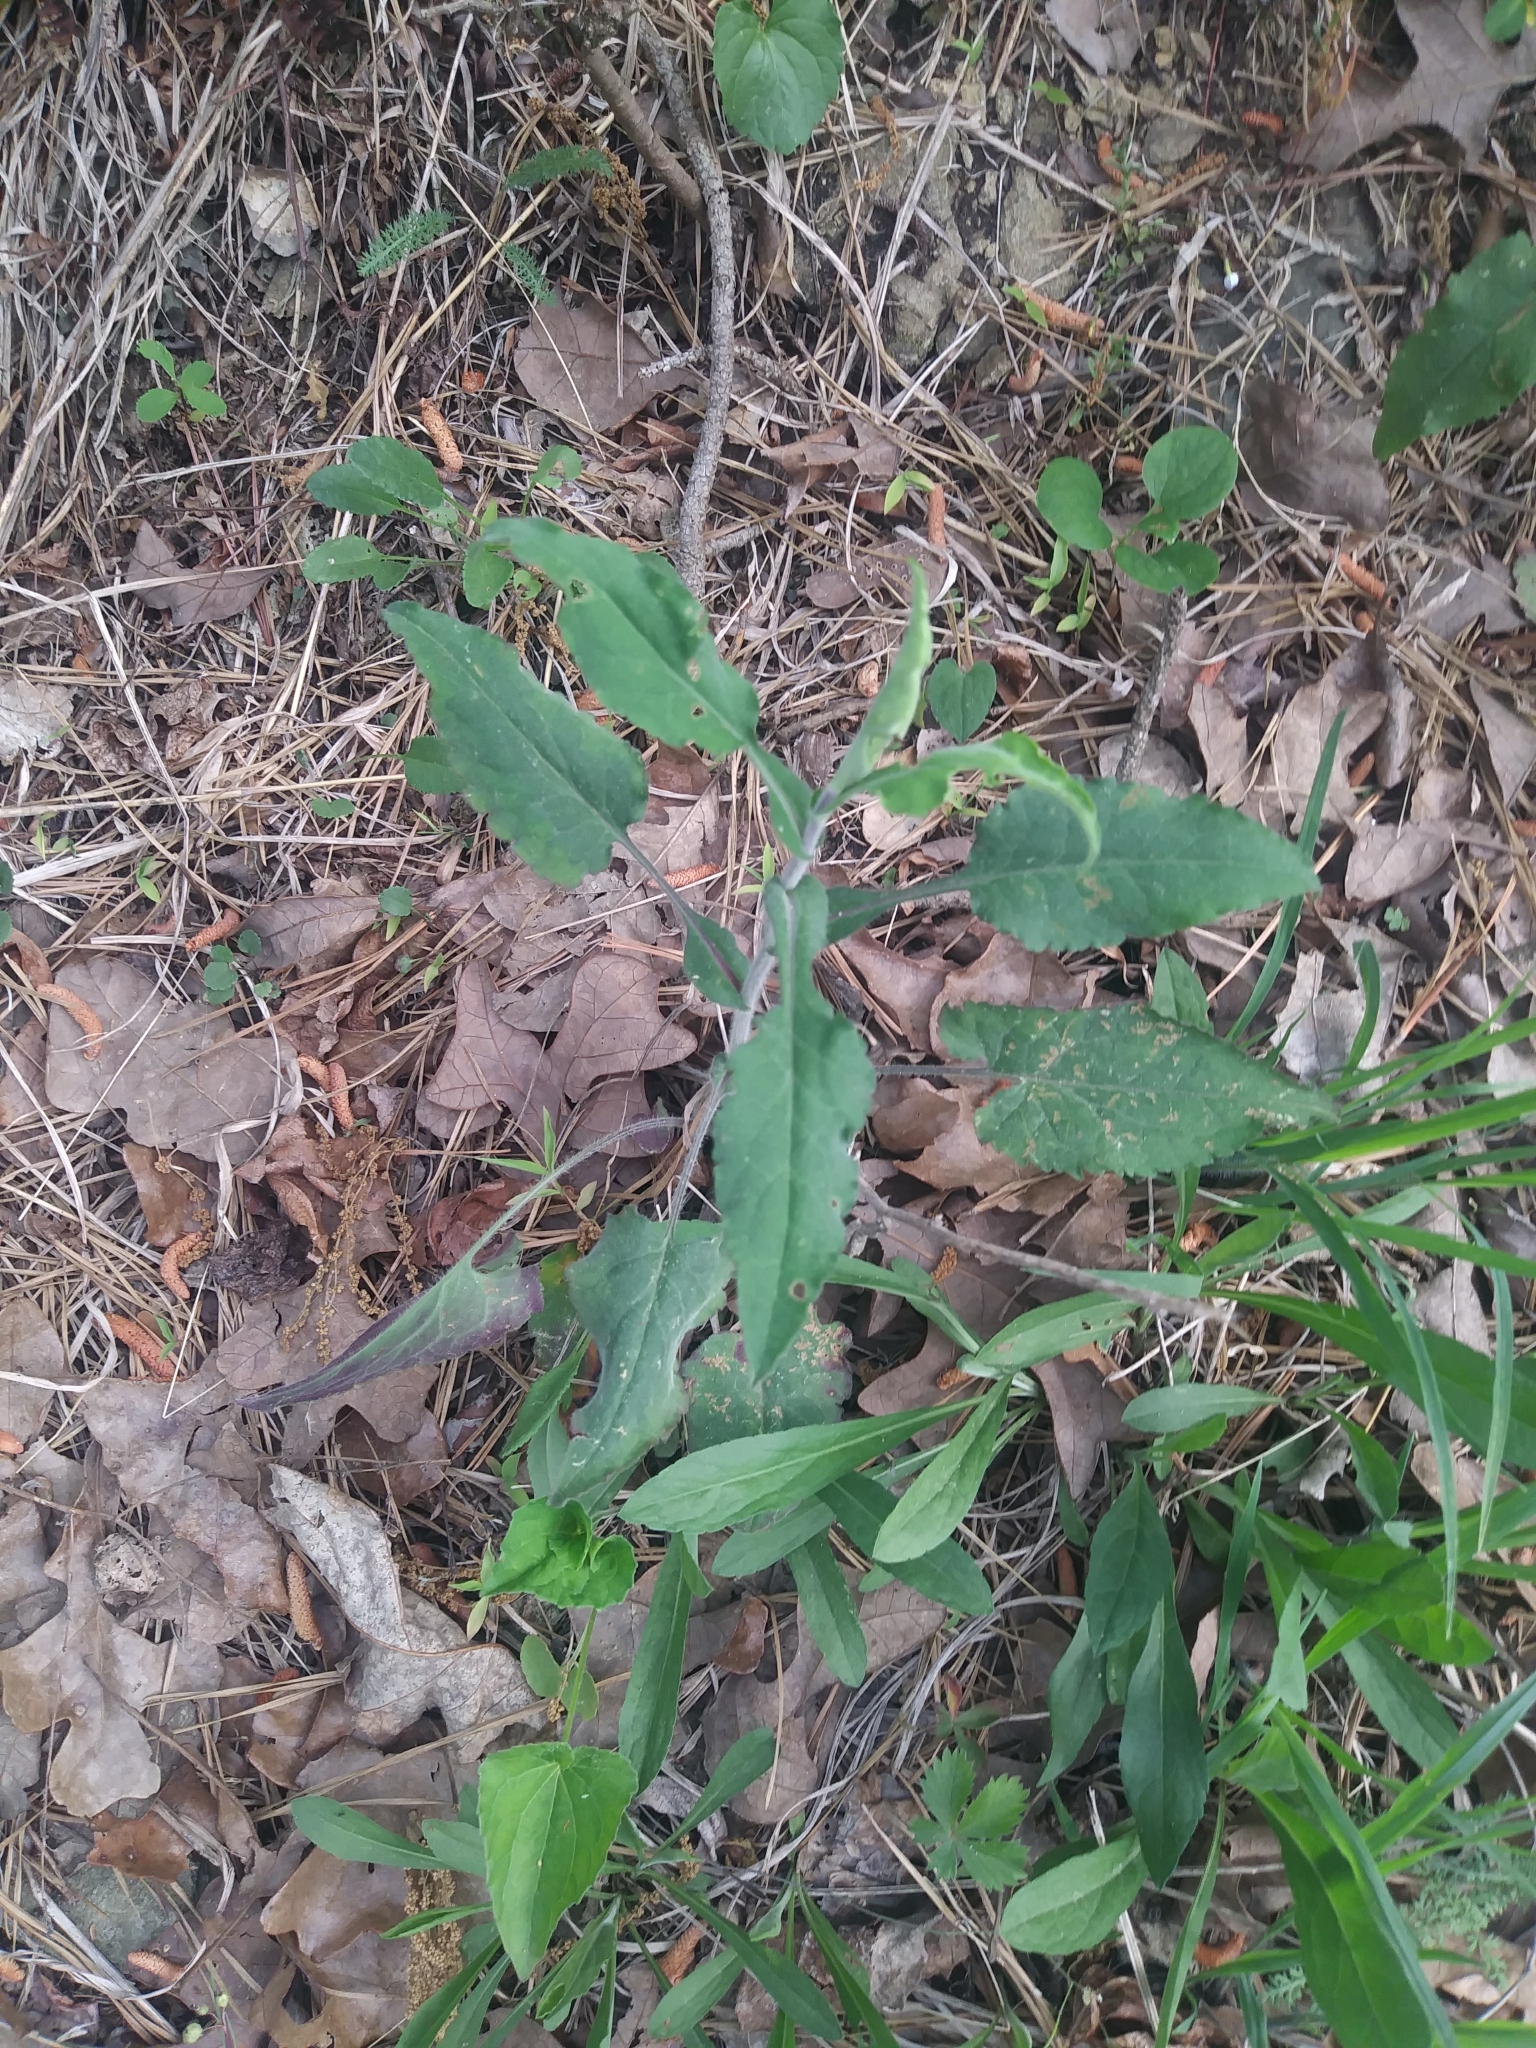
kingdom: Plantae
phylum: Tracheophyta
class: Magnoliopsida
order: Asterales
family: Asteraceae
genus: Symphyotrichum
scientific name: Symphyotrichum undulatum
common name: Clasping heart-leaf aster
